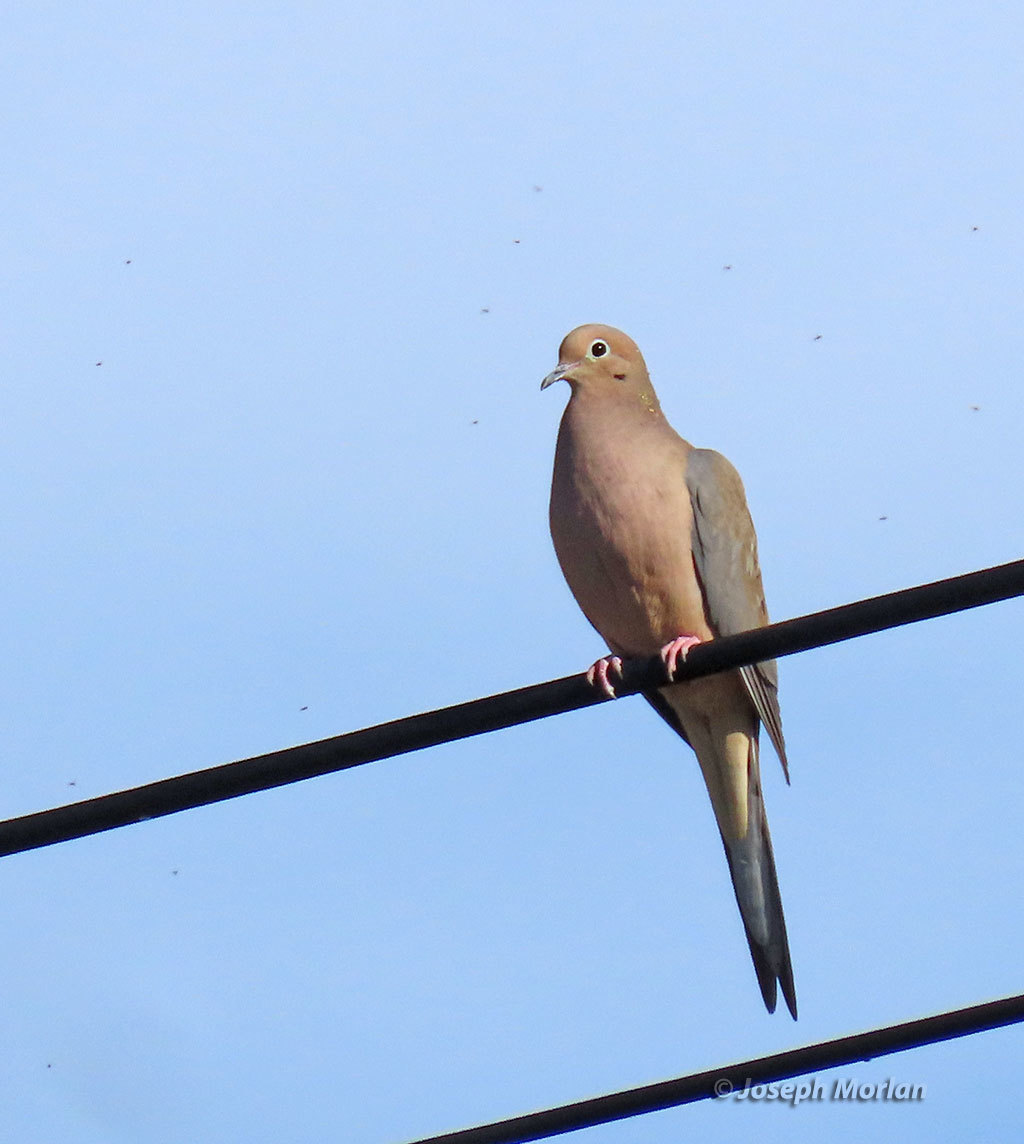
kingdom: Animalia
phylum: Chordata
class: Aves
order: Columbiformes
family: Columbidae
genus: Zenaida
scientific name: Zenaida macroura
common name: Mourning dove
